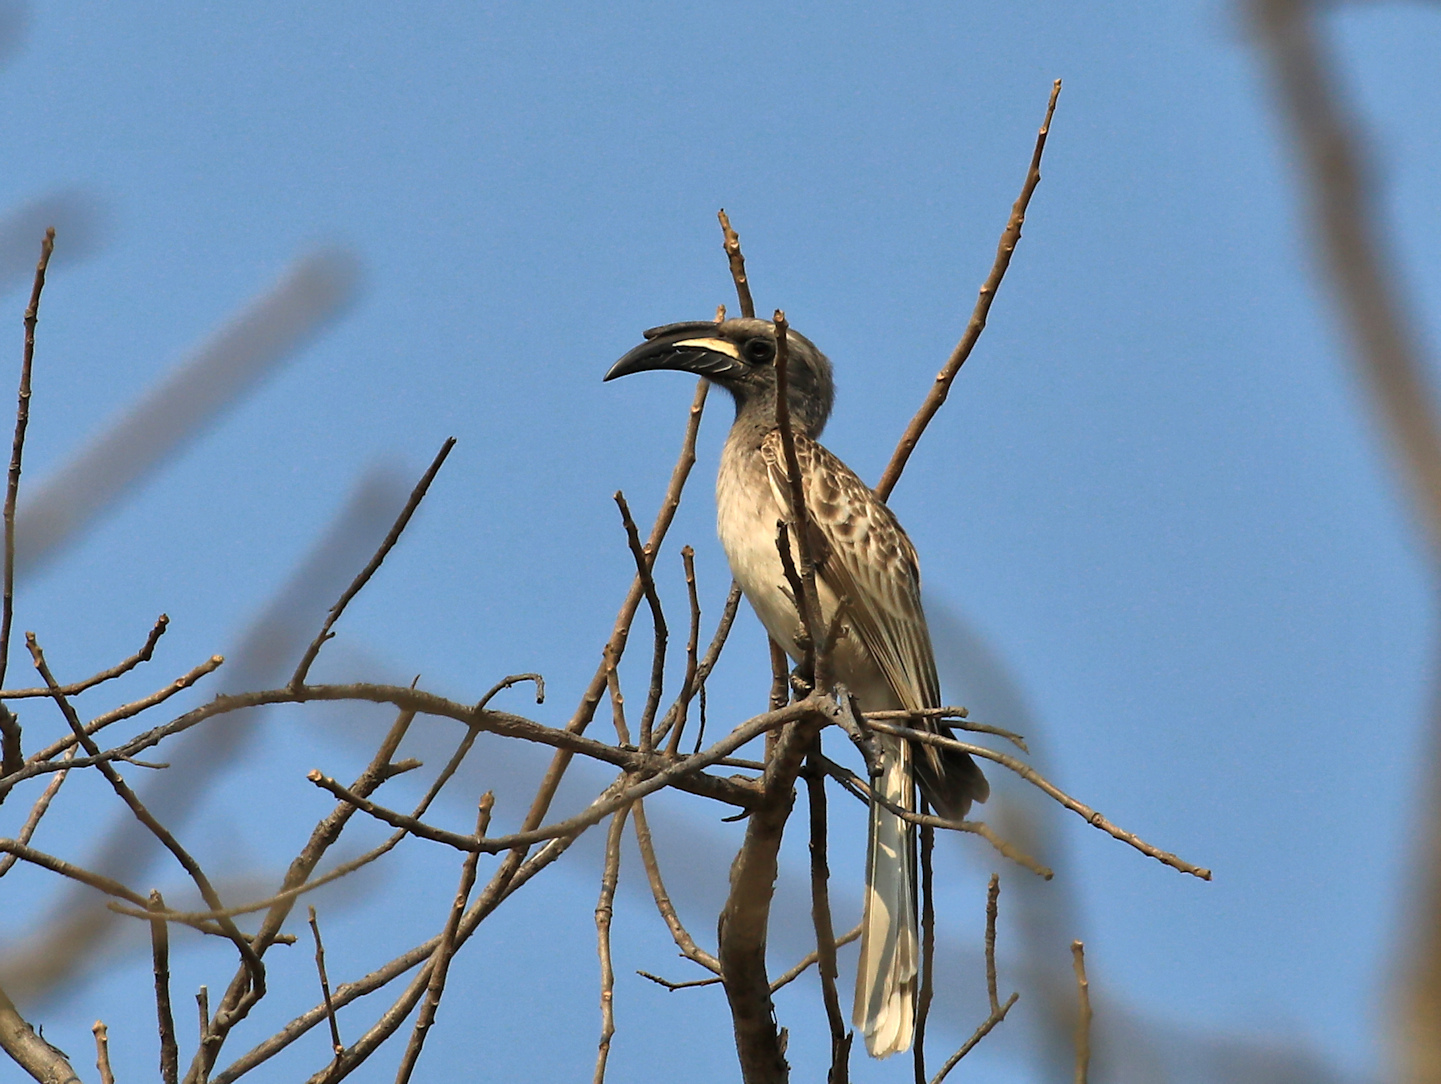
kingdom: Animalia
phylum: Chordata
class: Aves
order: Bucerotiformes
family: Bucerotidae
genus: Lophoceros
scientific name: Lophoceros nasutus
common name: African grey hornbill
